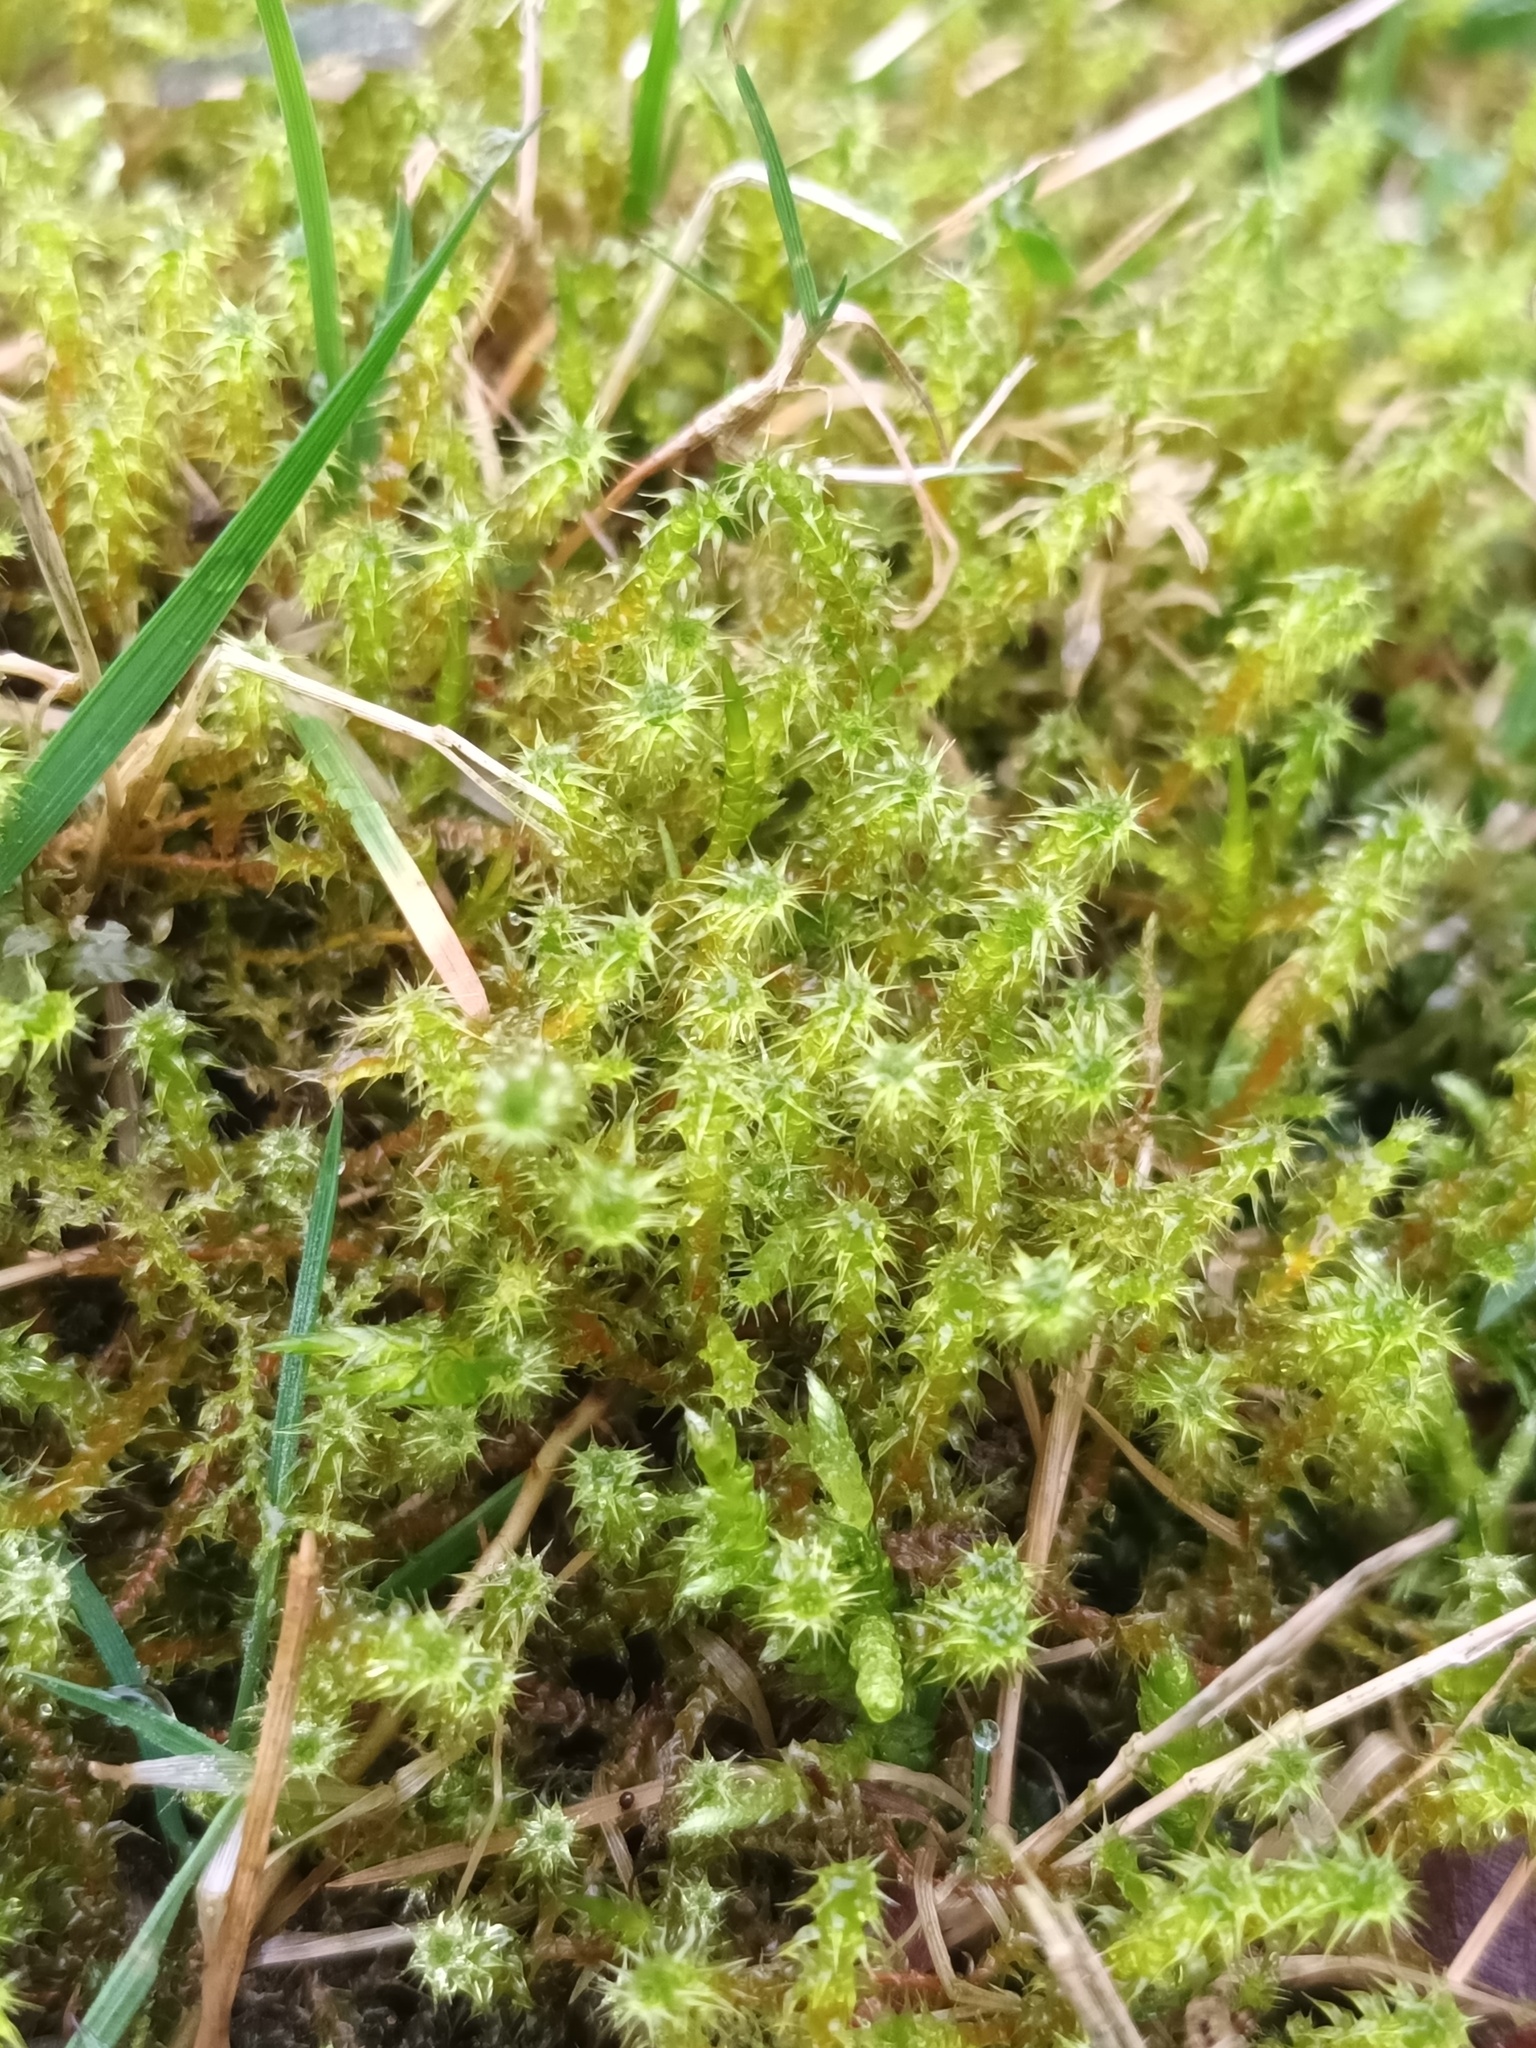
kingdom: Plantae
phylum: Bryophyta
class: Bryopsida
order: Hypnales
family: Hylocomiaceae
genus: Rhytidiadelphus
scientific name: Rhytidiadelphus squarrosus
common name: Springy turf-moss
